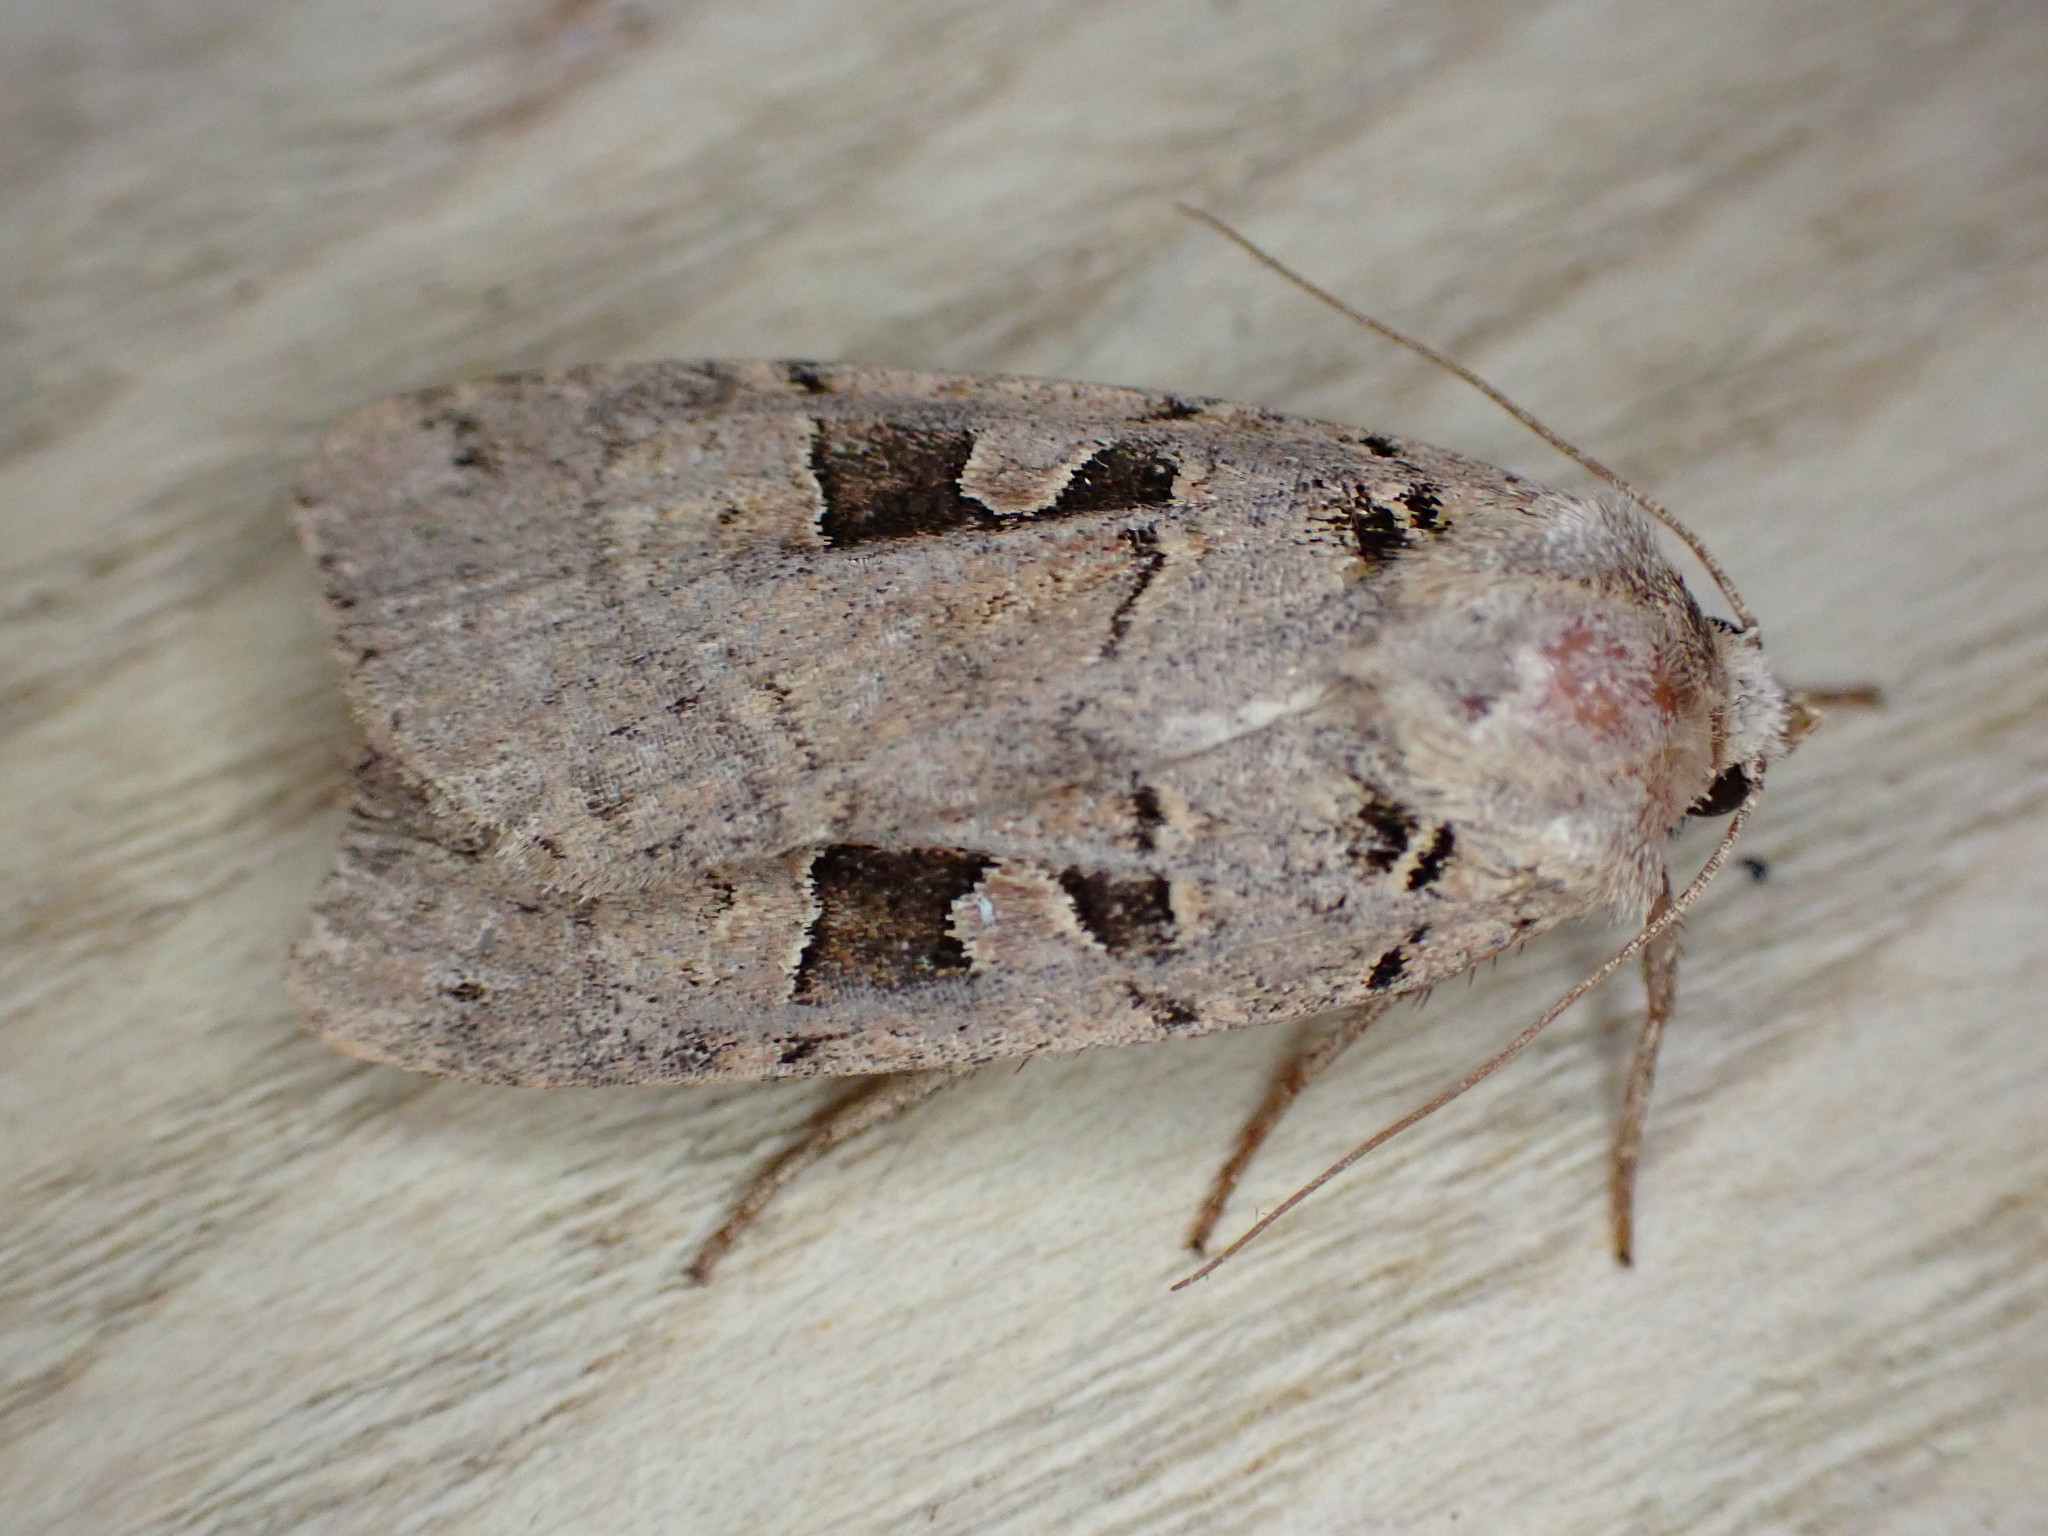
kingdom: Animalia
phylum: Arthropoda
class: Insecta
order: Lepidoptera
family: Noctuidae
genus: Xestia
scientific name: Xestia triangulum
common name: Double square-spot
